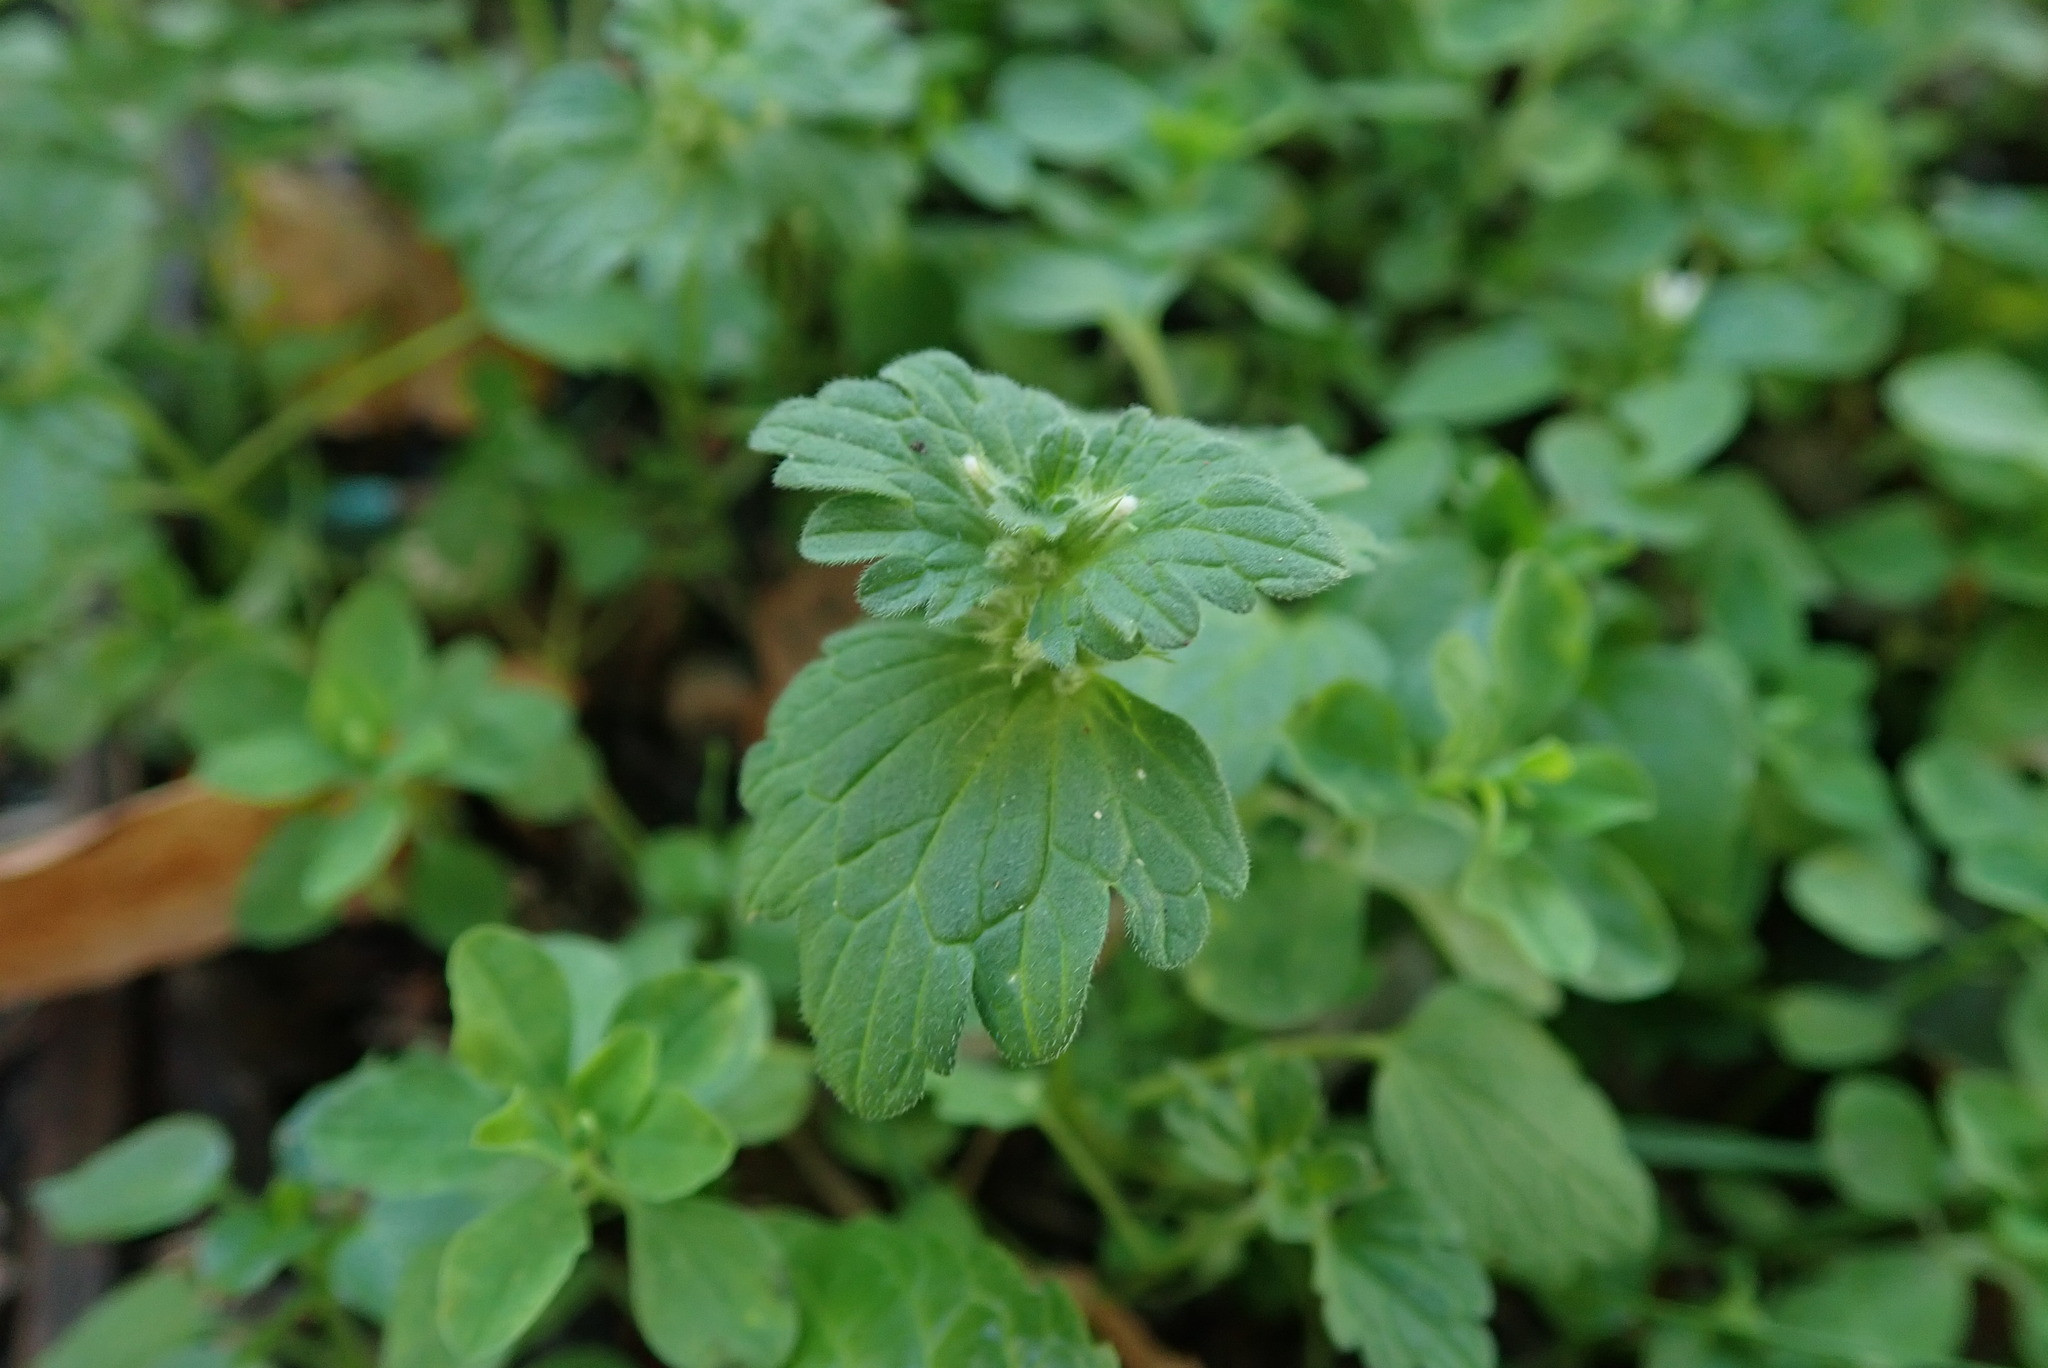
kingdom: Plantae
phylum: Tracheophyta
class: Magnoliopsida
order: Lamiales
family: Lamiaceae
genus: Lamium
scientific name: Lamium amplexicaule
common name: Henbit dead-nettle
